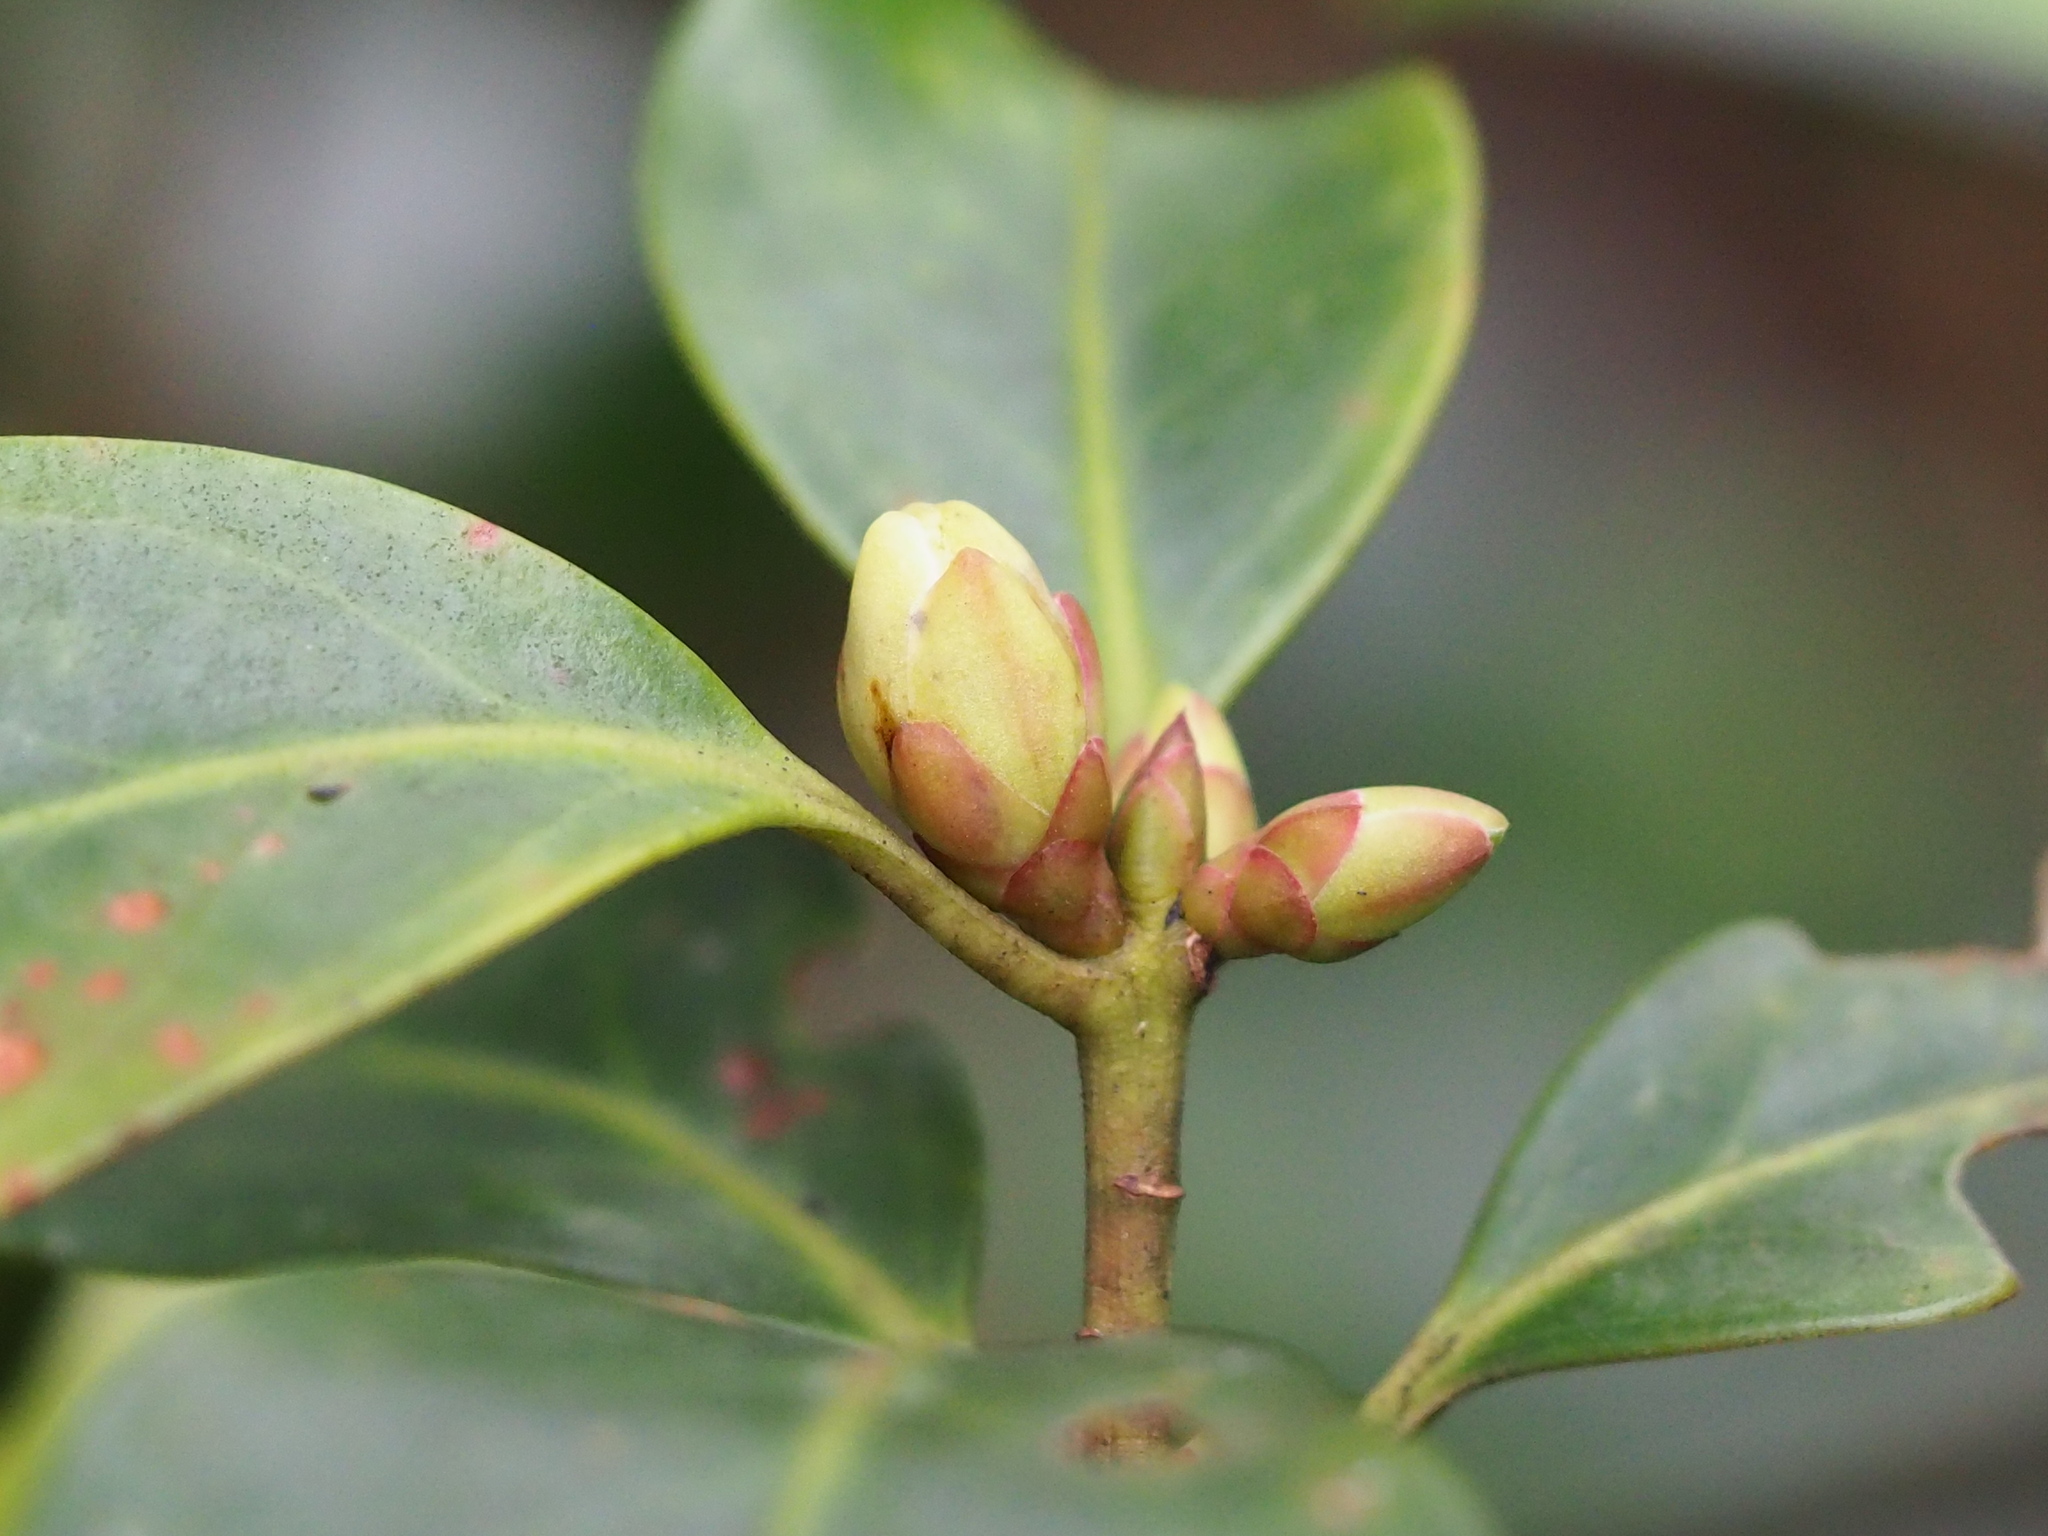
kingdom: Plantae
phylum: Tracheophyta
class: Magnoliopsida
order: Austrobaileyales
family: Schisandraceae
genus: Illicium
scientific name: Illicium anisatum
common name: Sacred anisetree
